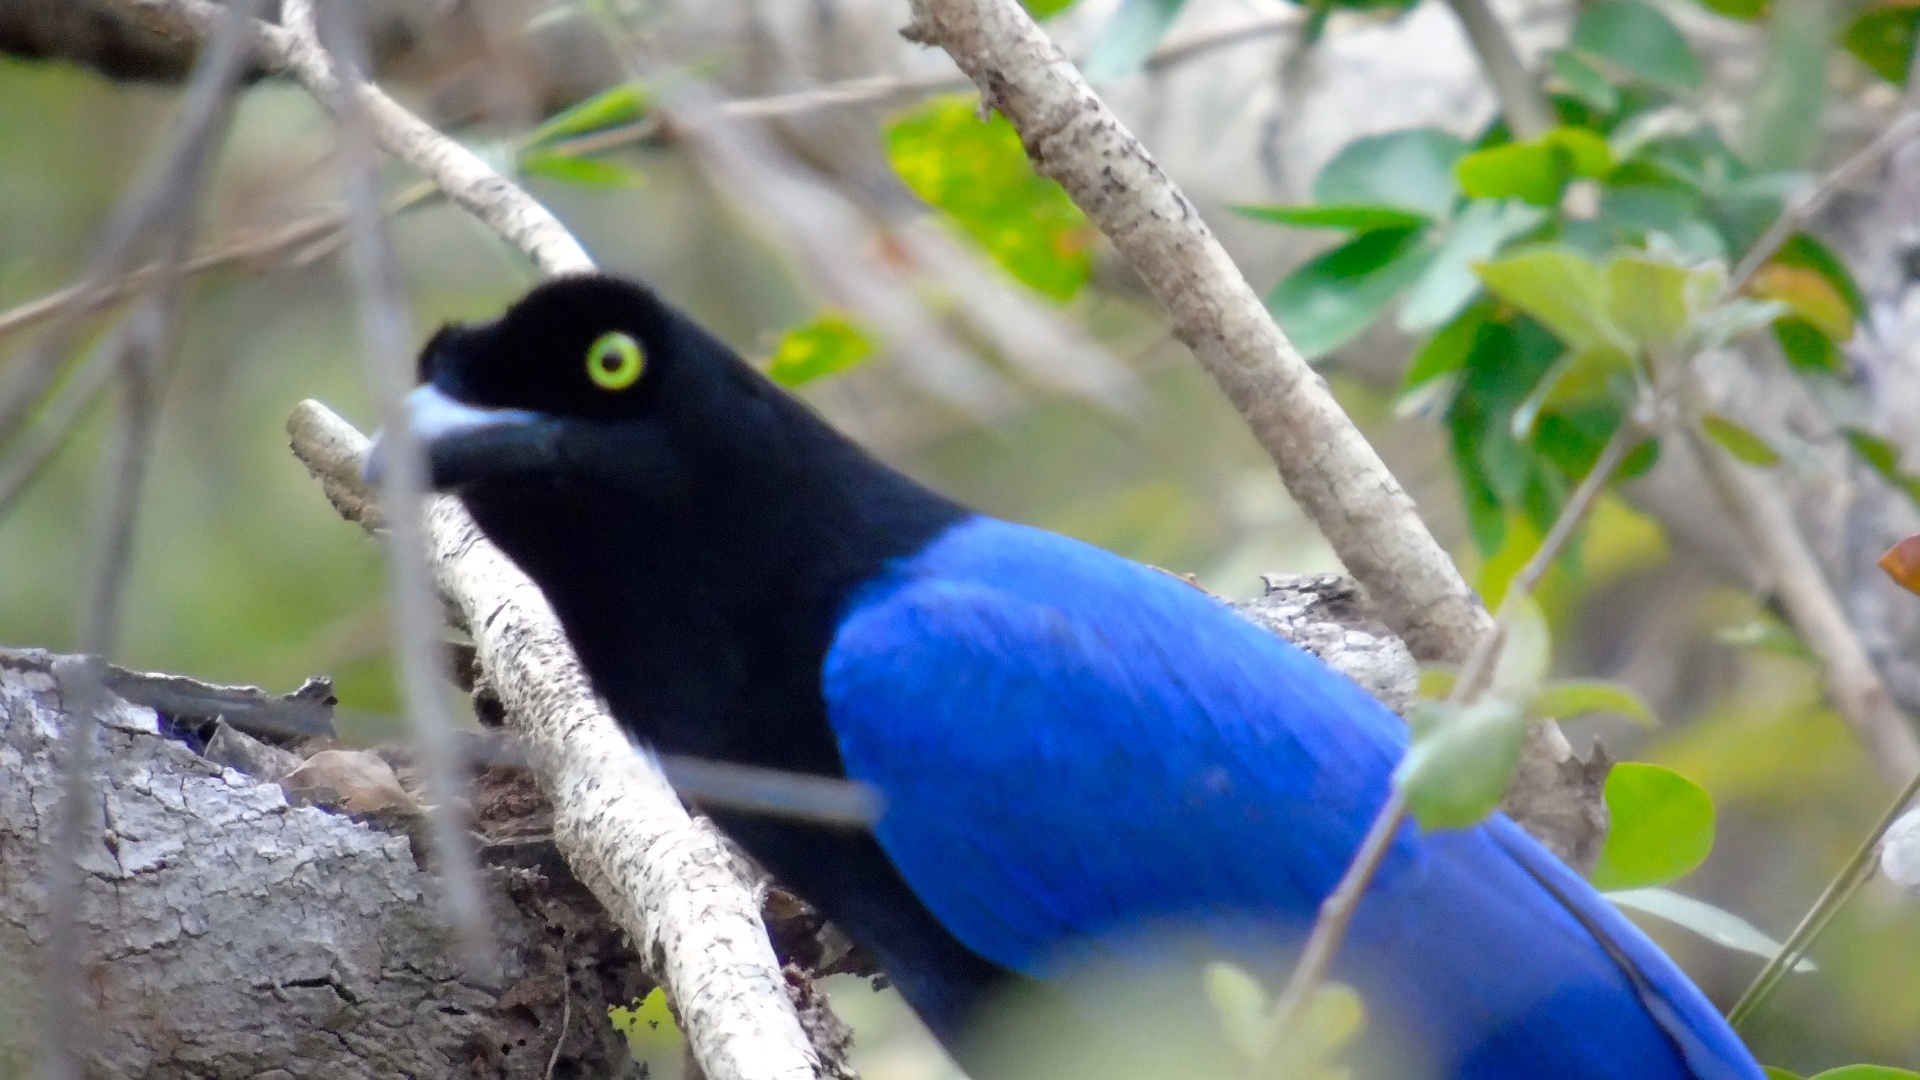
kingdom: Animalia
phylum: Chordata
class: Aves
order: Passeriformes
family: Corvidae
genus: Cyanocorax
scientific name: Cyanocorax beecheii
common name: Purplish-backed jay
